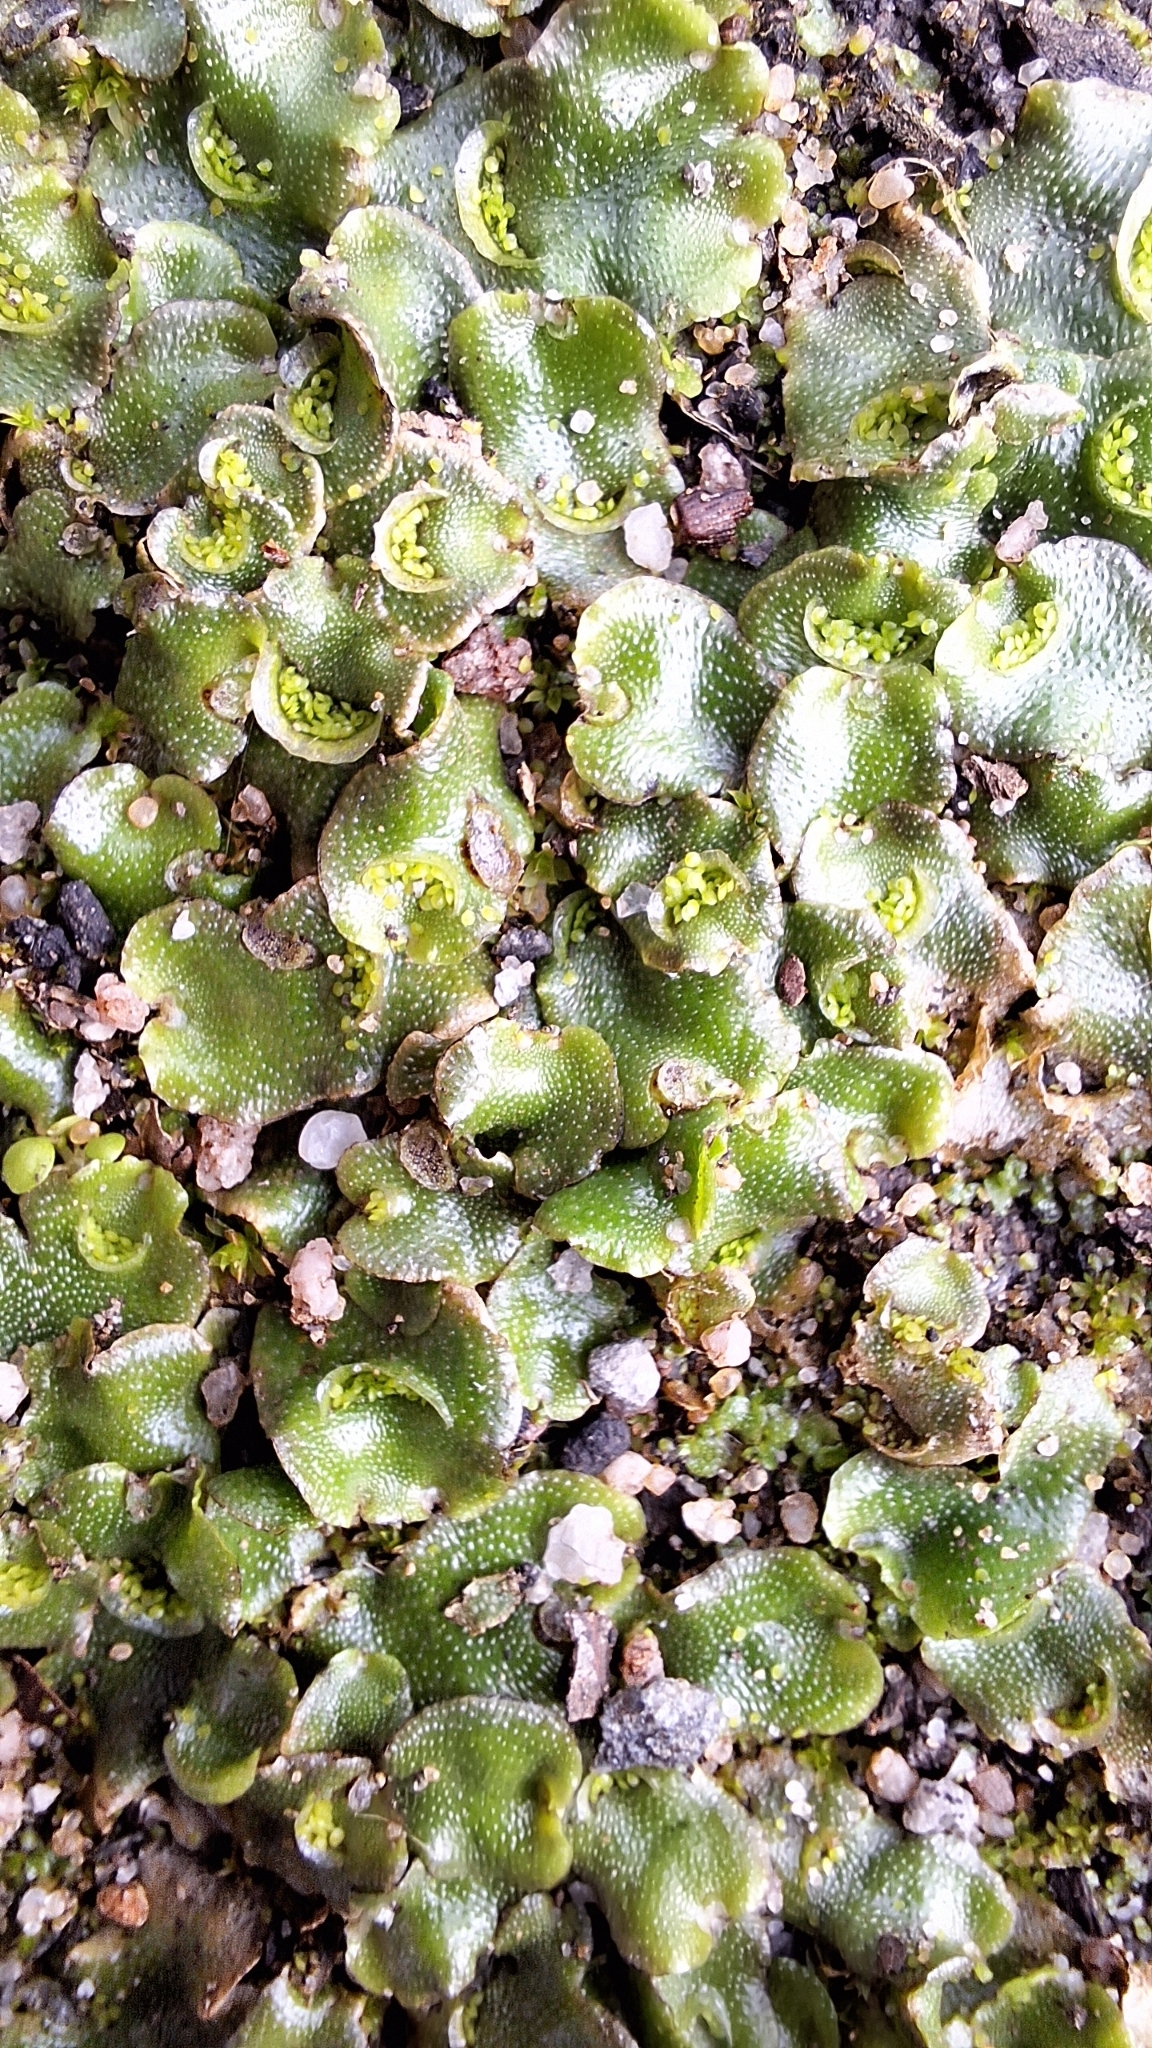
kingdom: Plantae
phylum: Marchantiophyta
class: Marchantiopsida
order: Lunulariales
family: Lunulariaceae
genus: Lunularia
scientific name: Lunularia cruciata
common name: Crescent-cup liverwort
